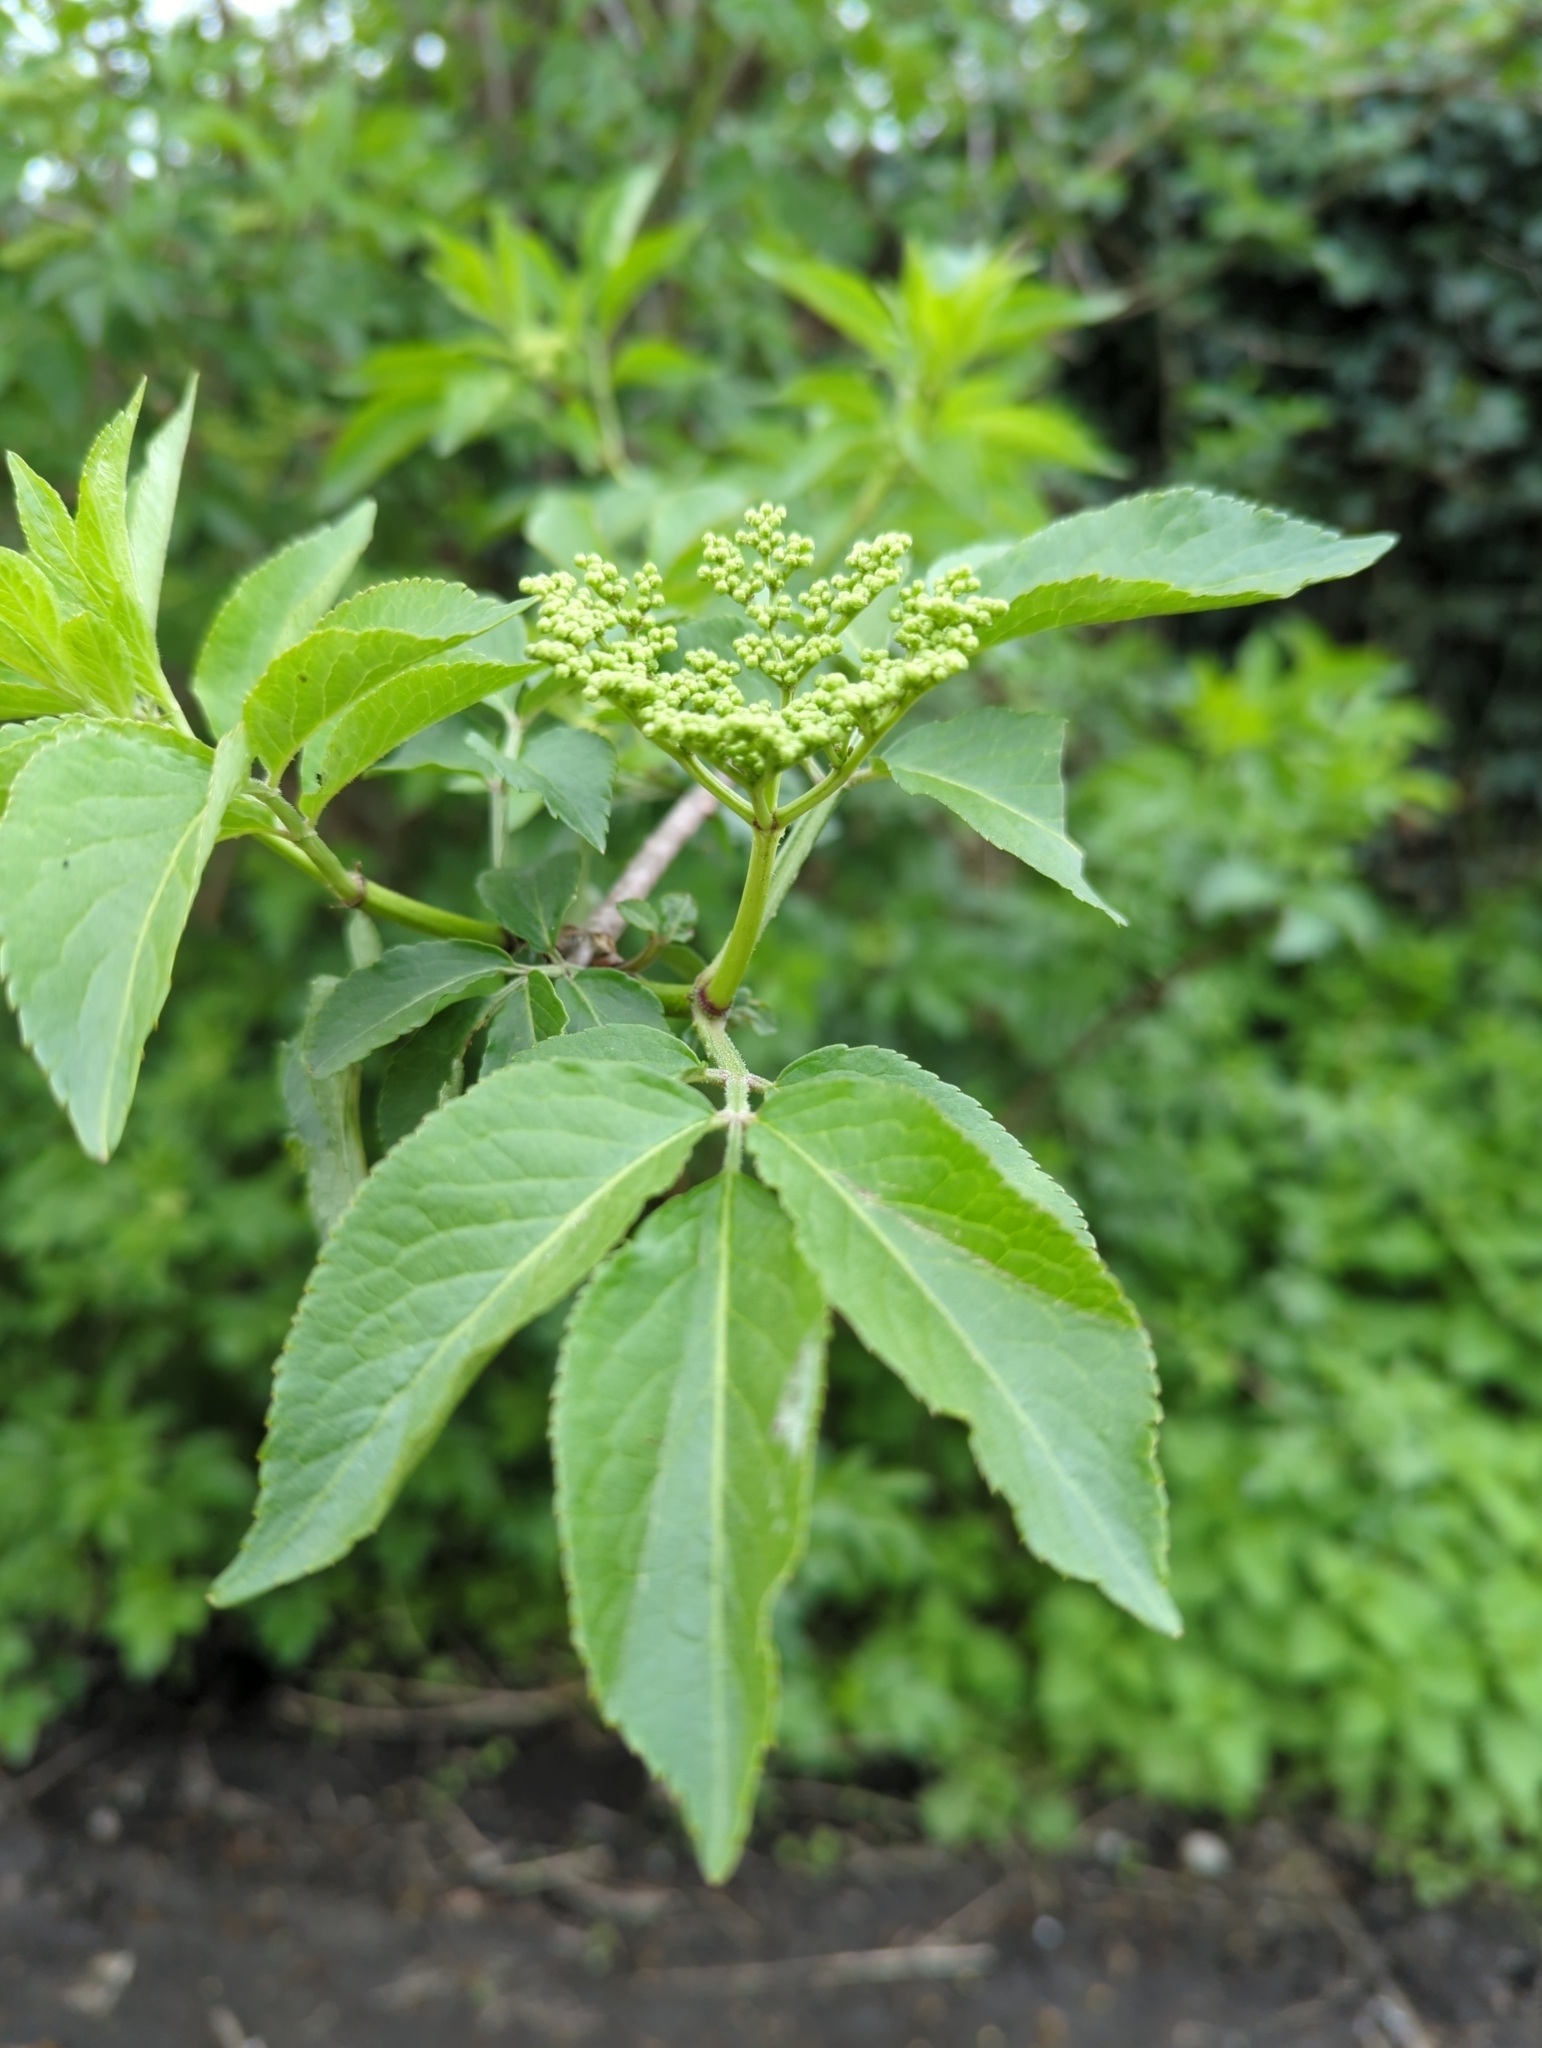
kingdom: Plantae
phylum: Tracheophyta
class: Magnoliopsida
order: Dipsacales
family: Viburnaceae
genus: Sambucus
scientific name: Sambucus nigra
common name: Elder
